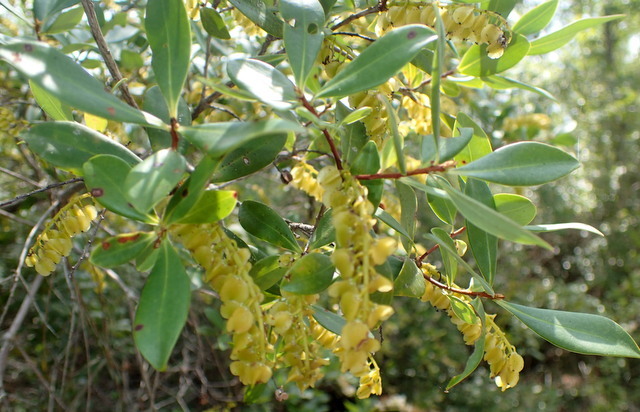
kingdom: Plantae
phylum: Tracheophyta
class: Magnoliopsida
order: Ericales
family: Cyrillaceae
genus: Cliftonia
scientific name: Cliftonia monophylla
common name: Titi
